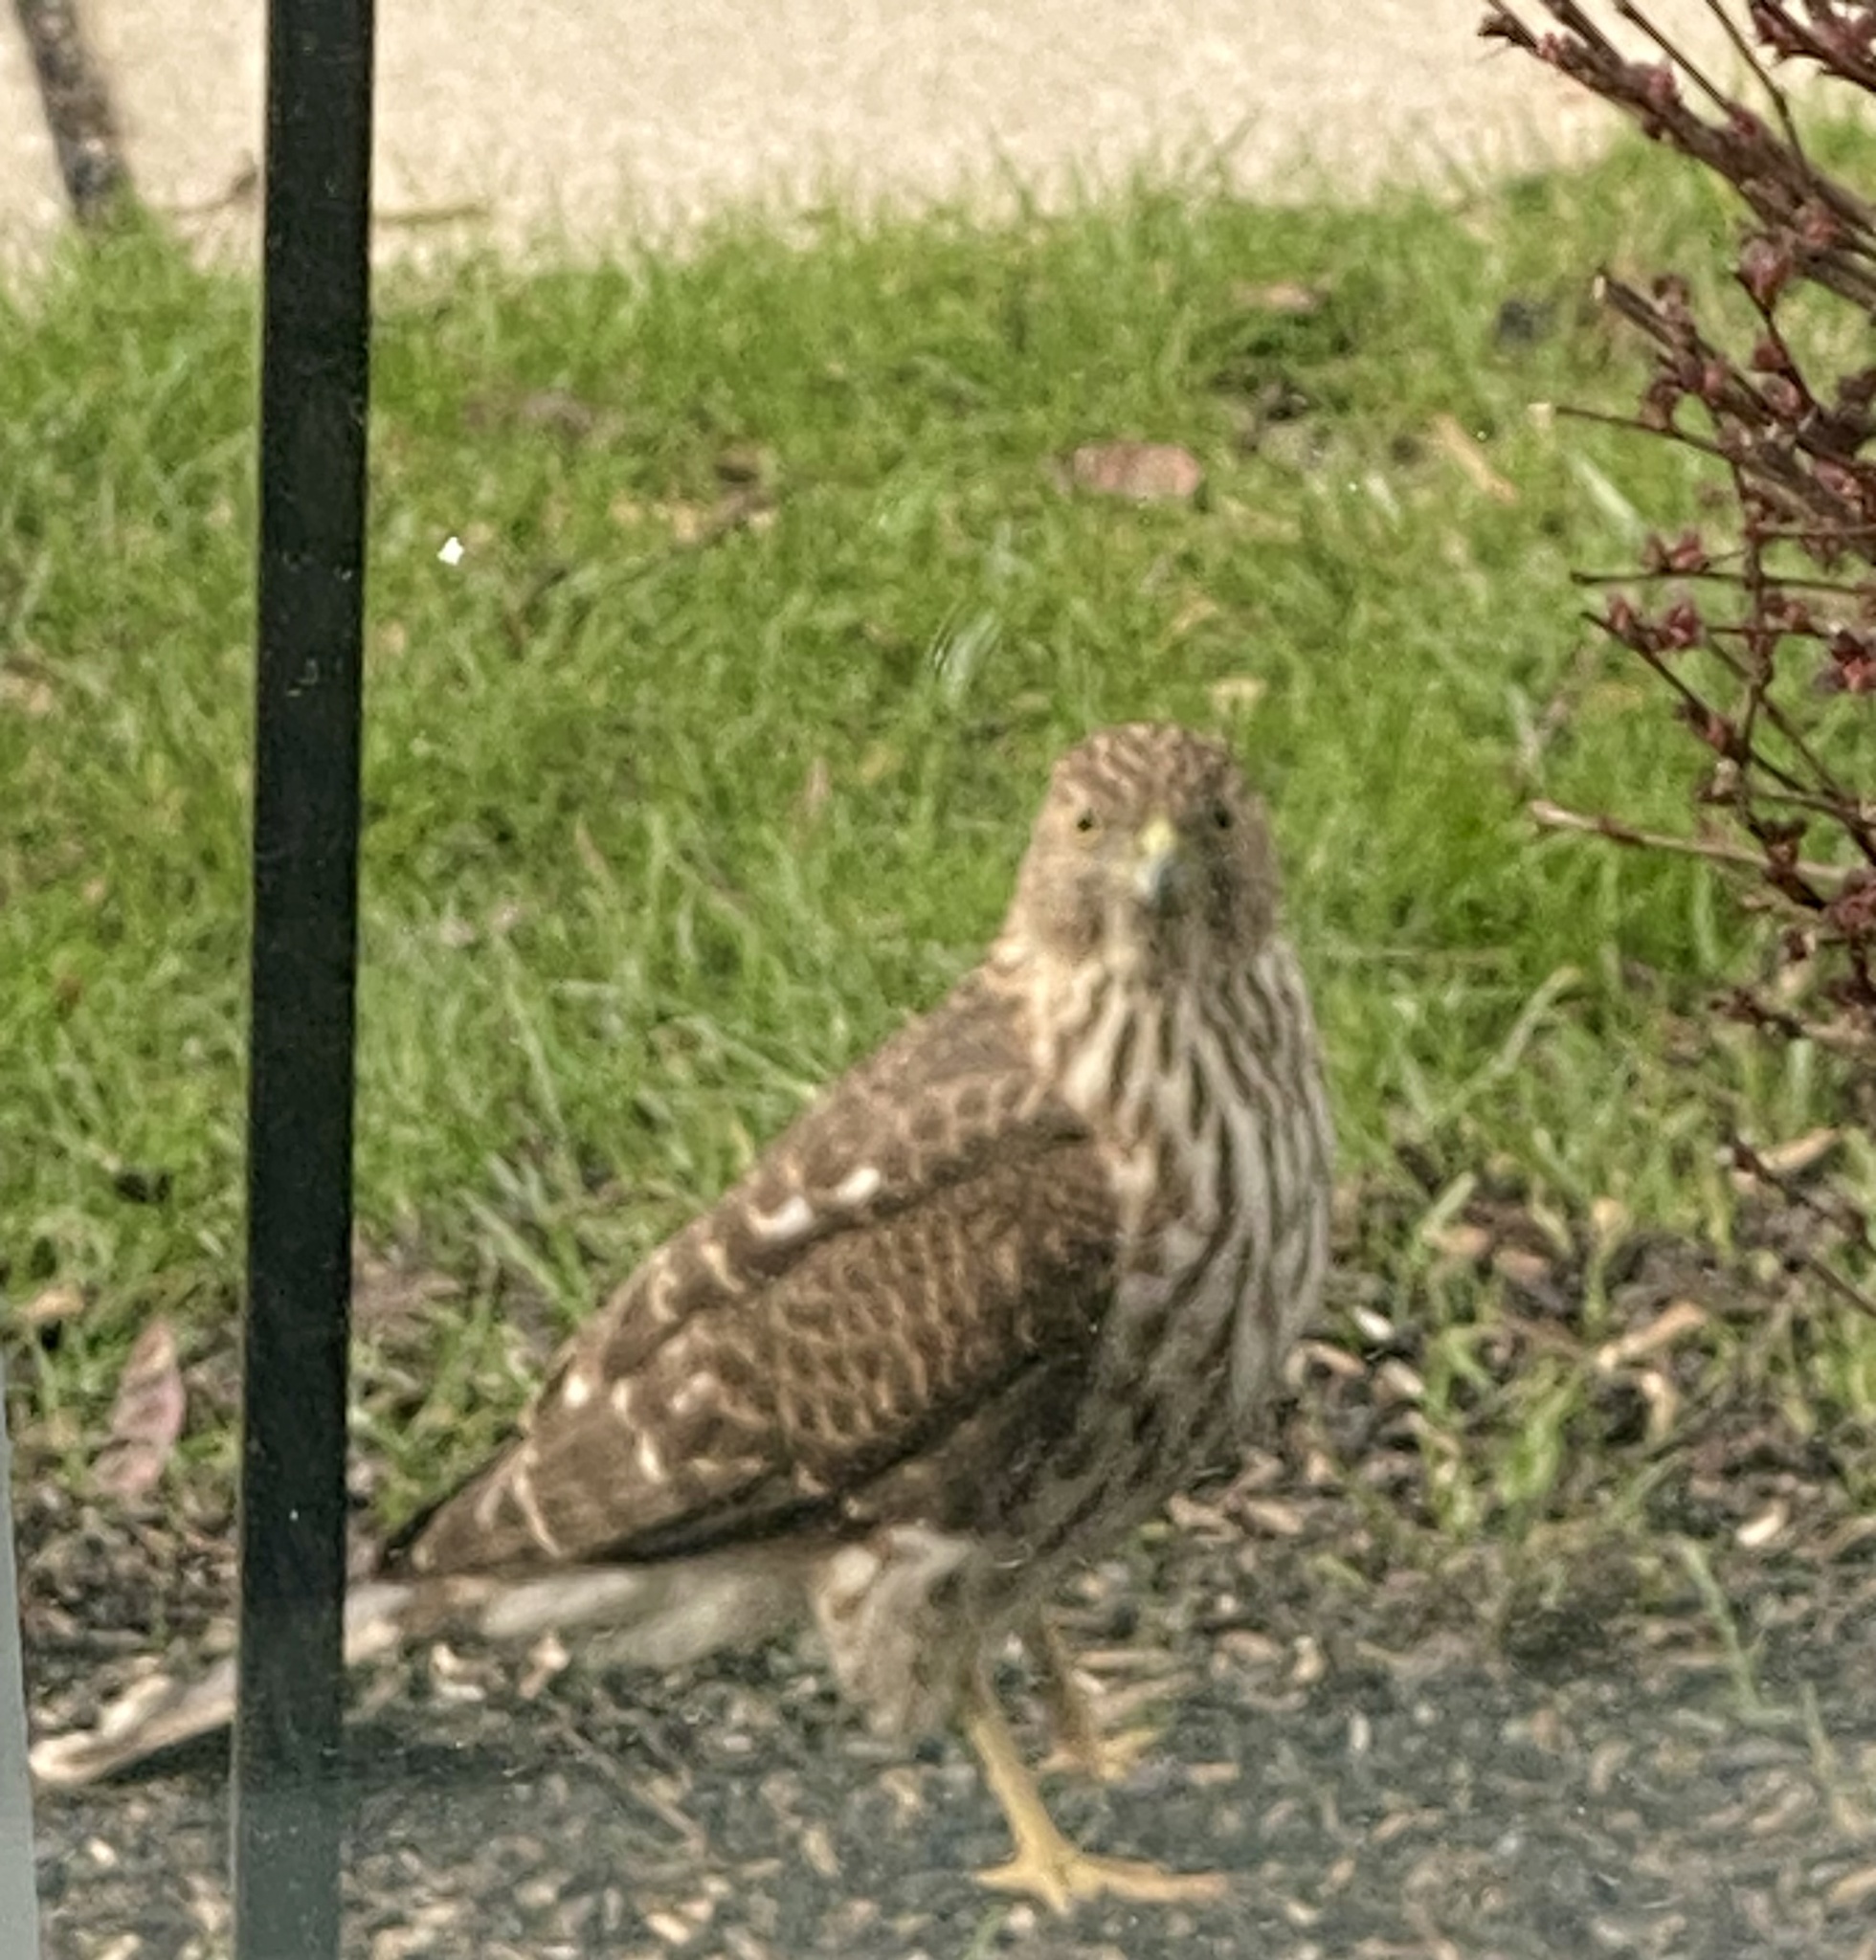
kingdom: Animalia
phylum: Chordata
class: Aves
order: Accipitriformes
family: Accipitridae
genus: Accipiter
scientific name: Accipiter cooperii
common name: Cooper's hawk
